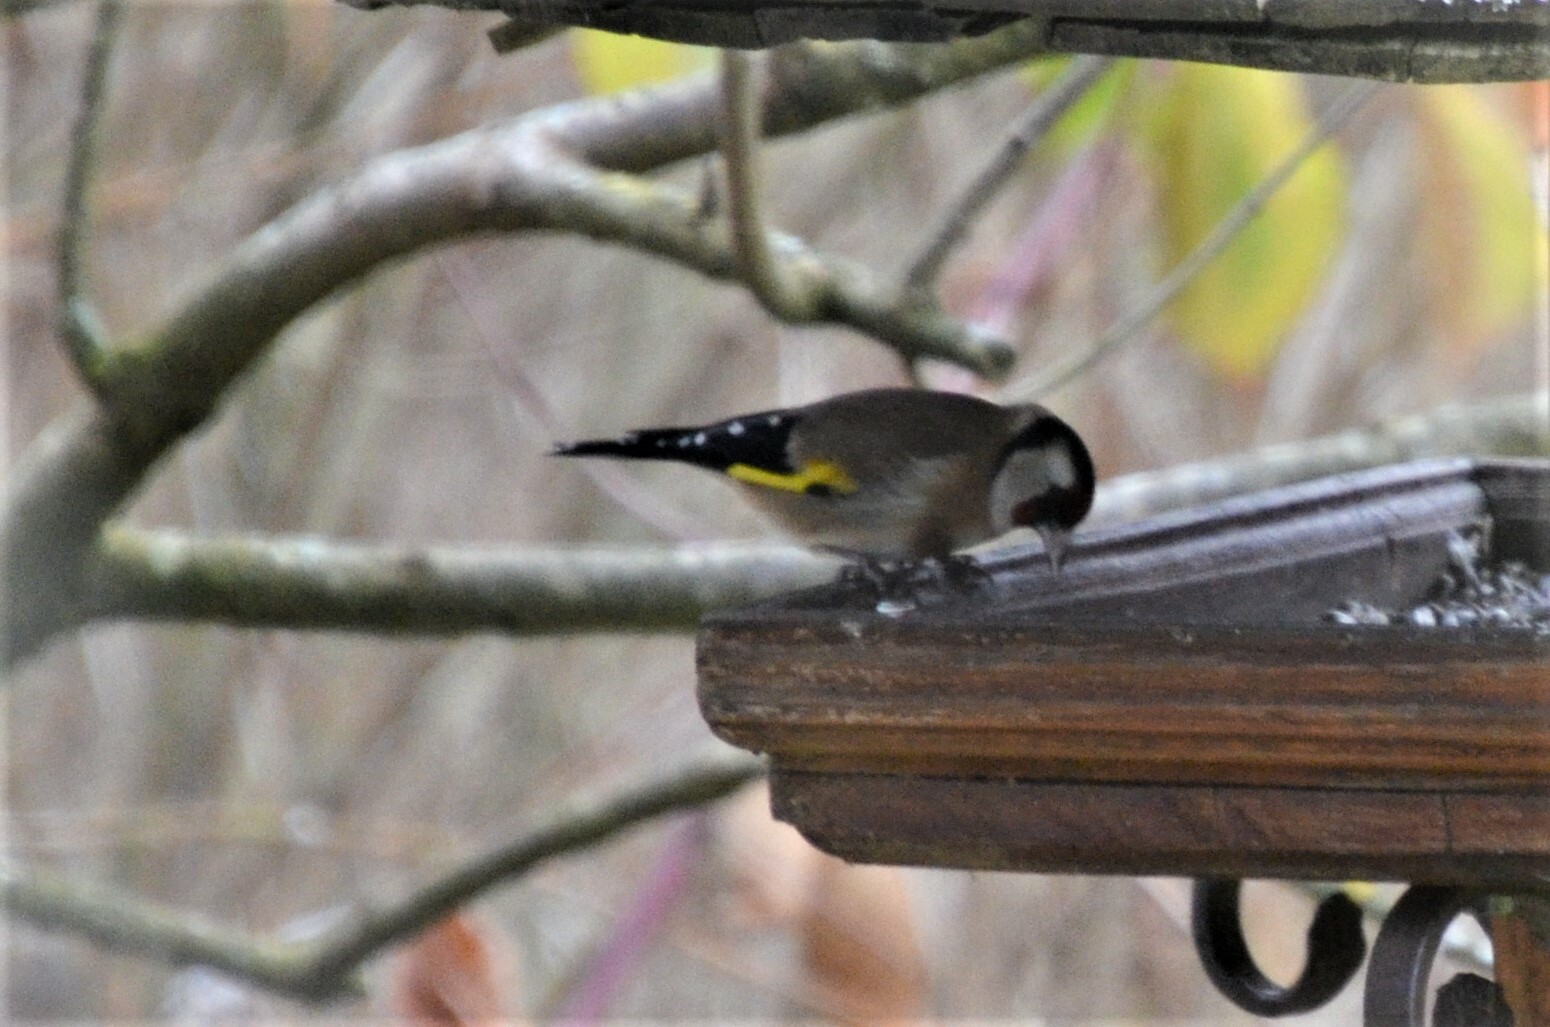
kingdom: Animalia
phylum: Chordata
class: Aves
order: Passeriformes
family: Fringillidae
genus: Carduelis
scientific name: Carduelis carduelis
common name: European goldfinch
